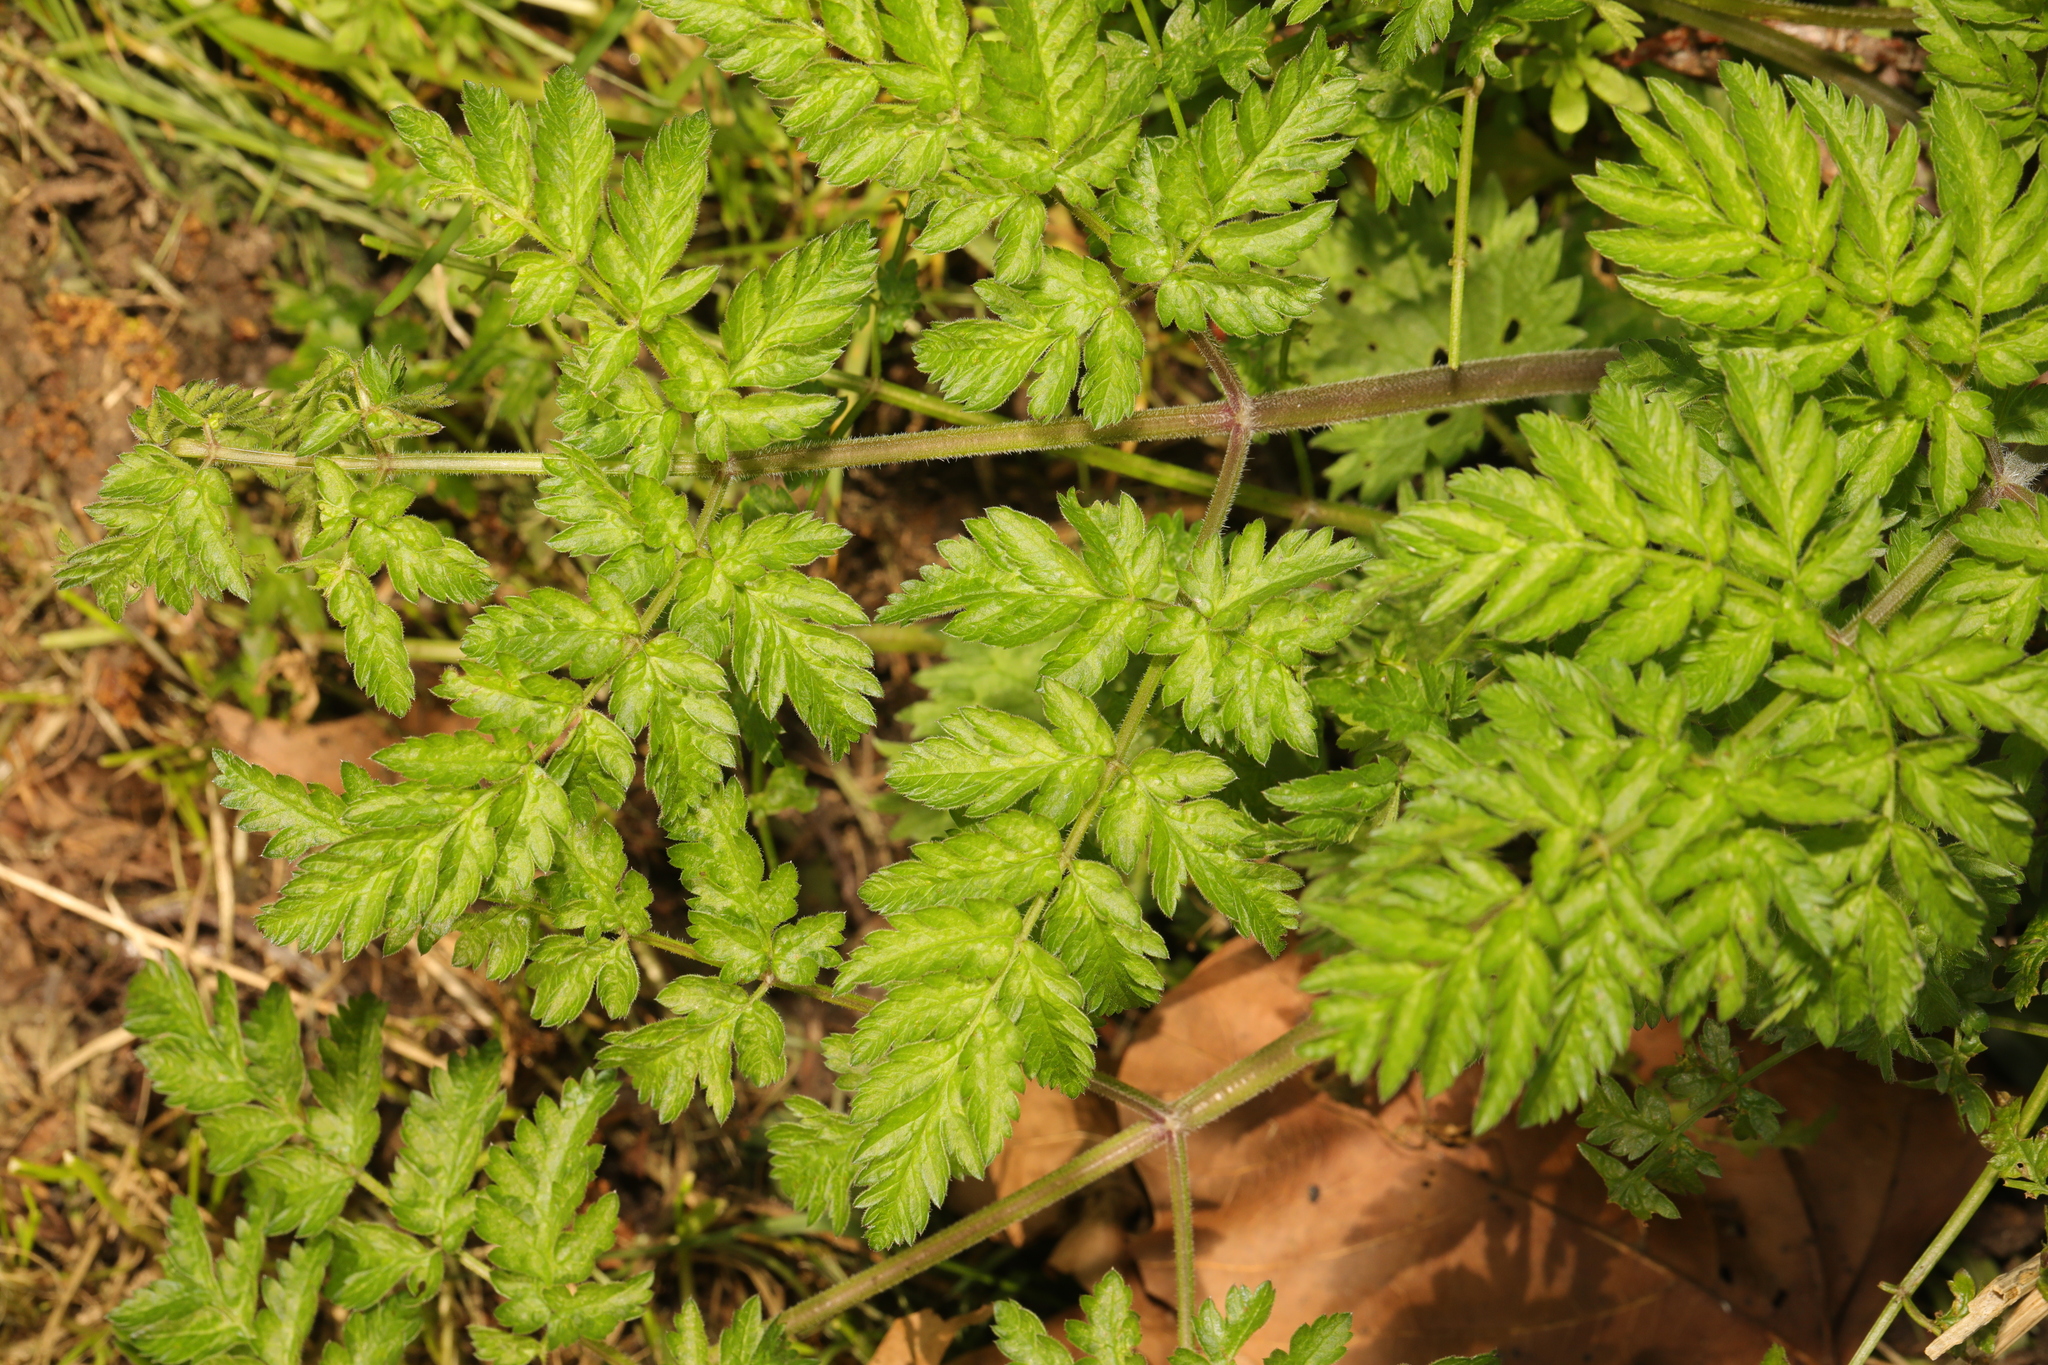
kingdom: Plantae
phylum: Tracheophyta
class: Magnoliopsida
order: Apiales
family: Apiaceae
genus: Anthriscus
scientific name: Anthriscus sylvestris
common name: Cow parsley
